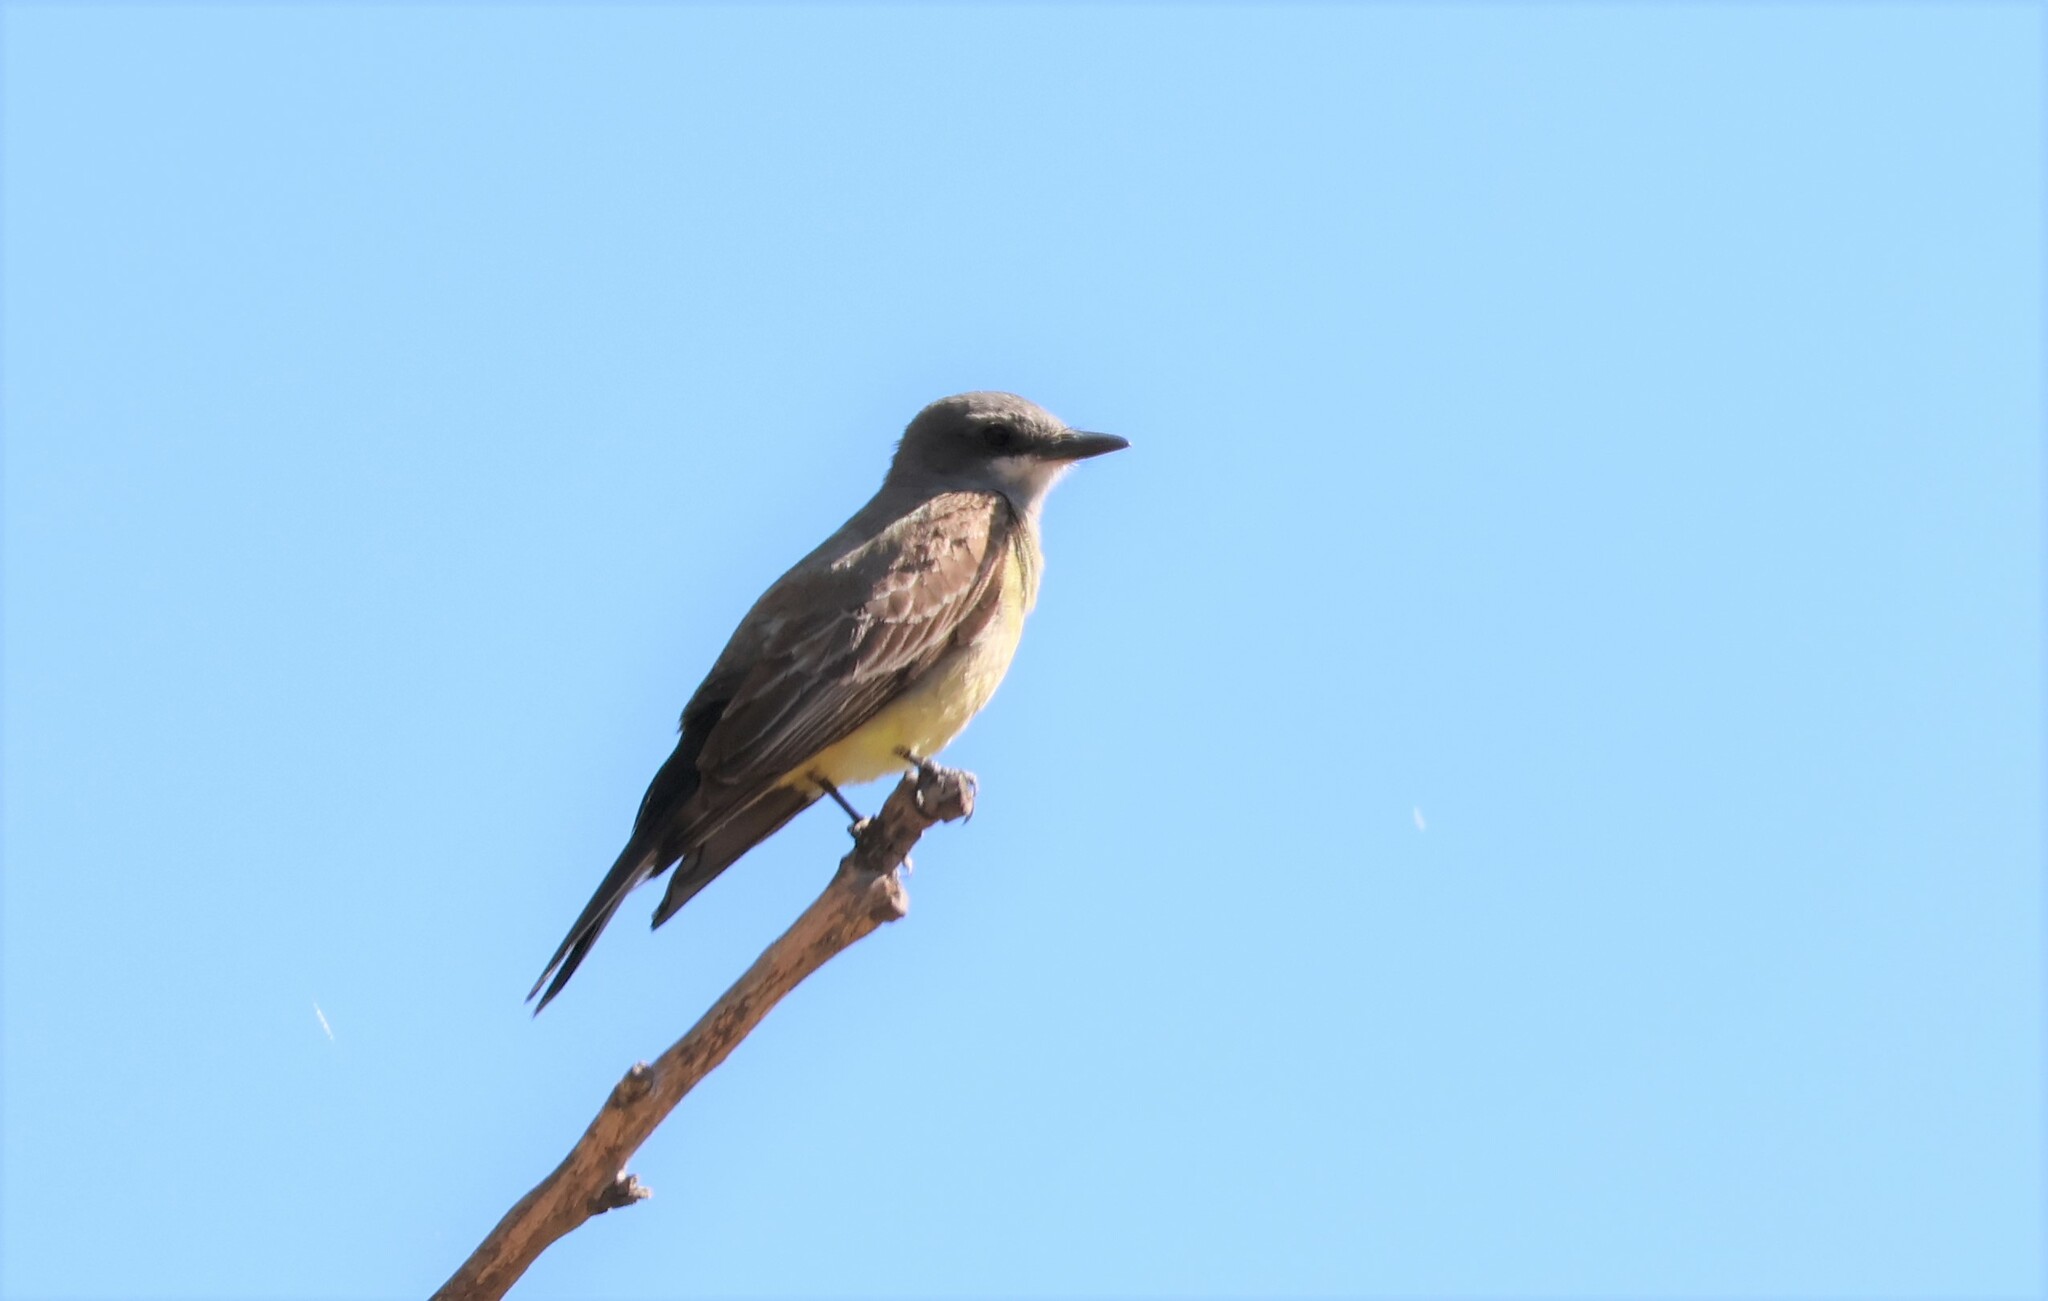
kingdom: Animalia
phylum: Chordata
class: Aves
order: Passeriformes
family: Tyrannidae
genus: Tyrannus
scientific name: Tyrannus verticalis
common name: Western kingbird
